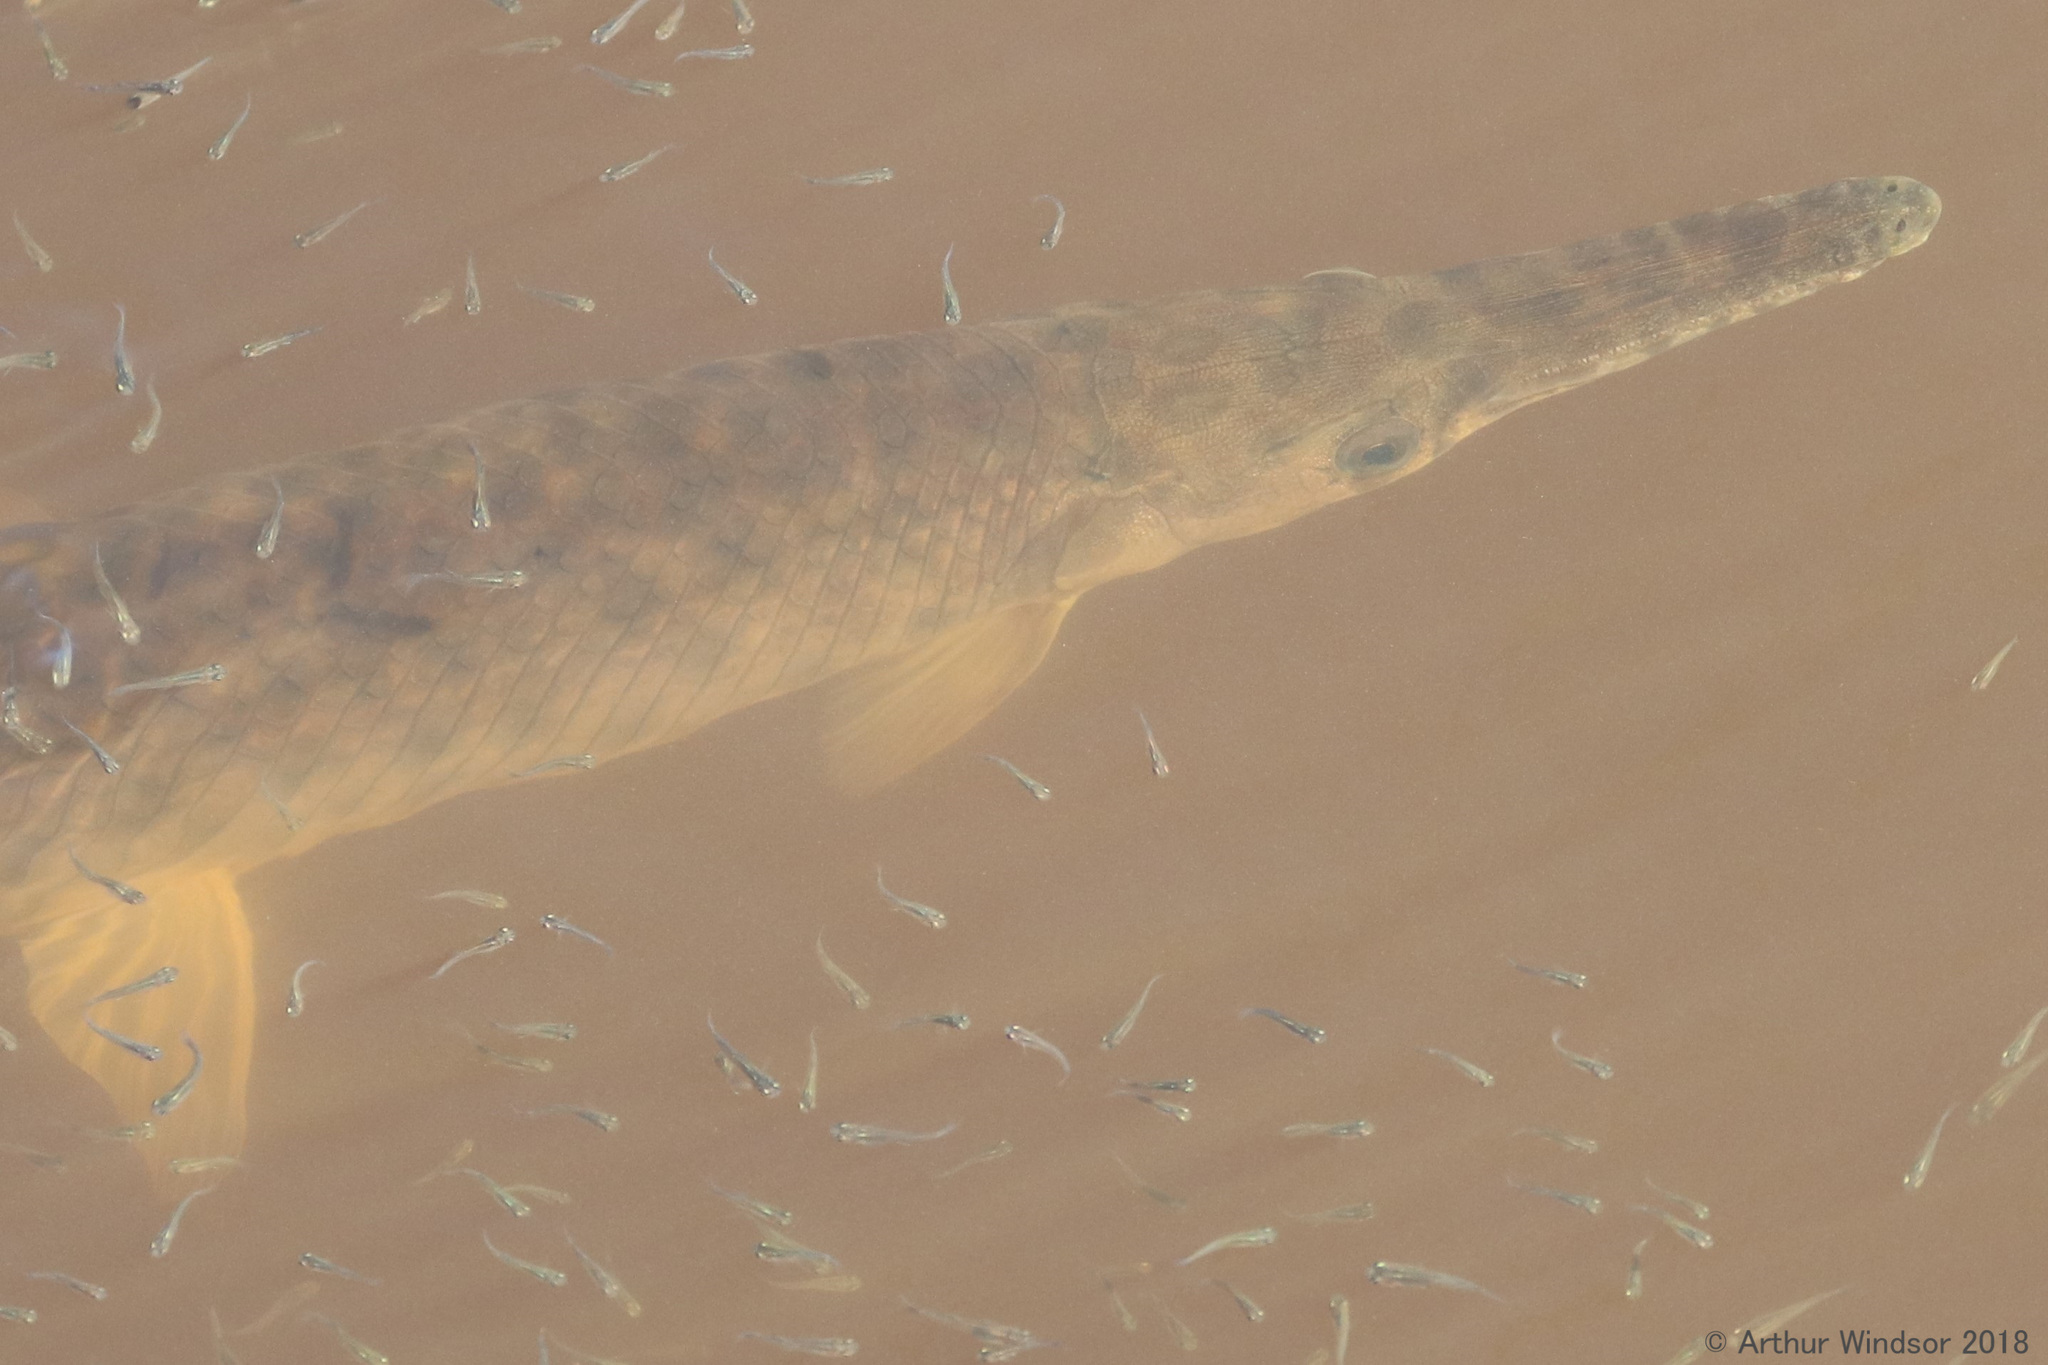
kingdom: Animalia
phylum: Chordata
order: Lepisosteiformes
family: Lepisosteidae
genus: Lepisosteus
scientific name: Lepisosteus platyrhincus
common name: Florida gar
